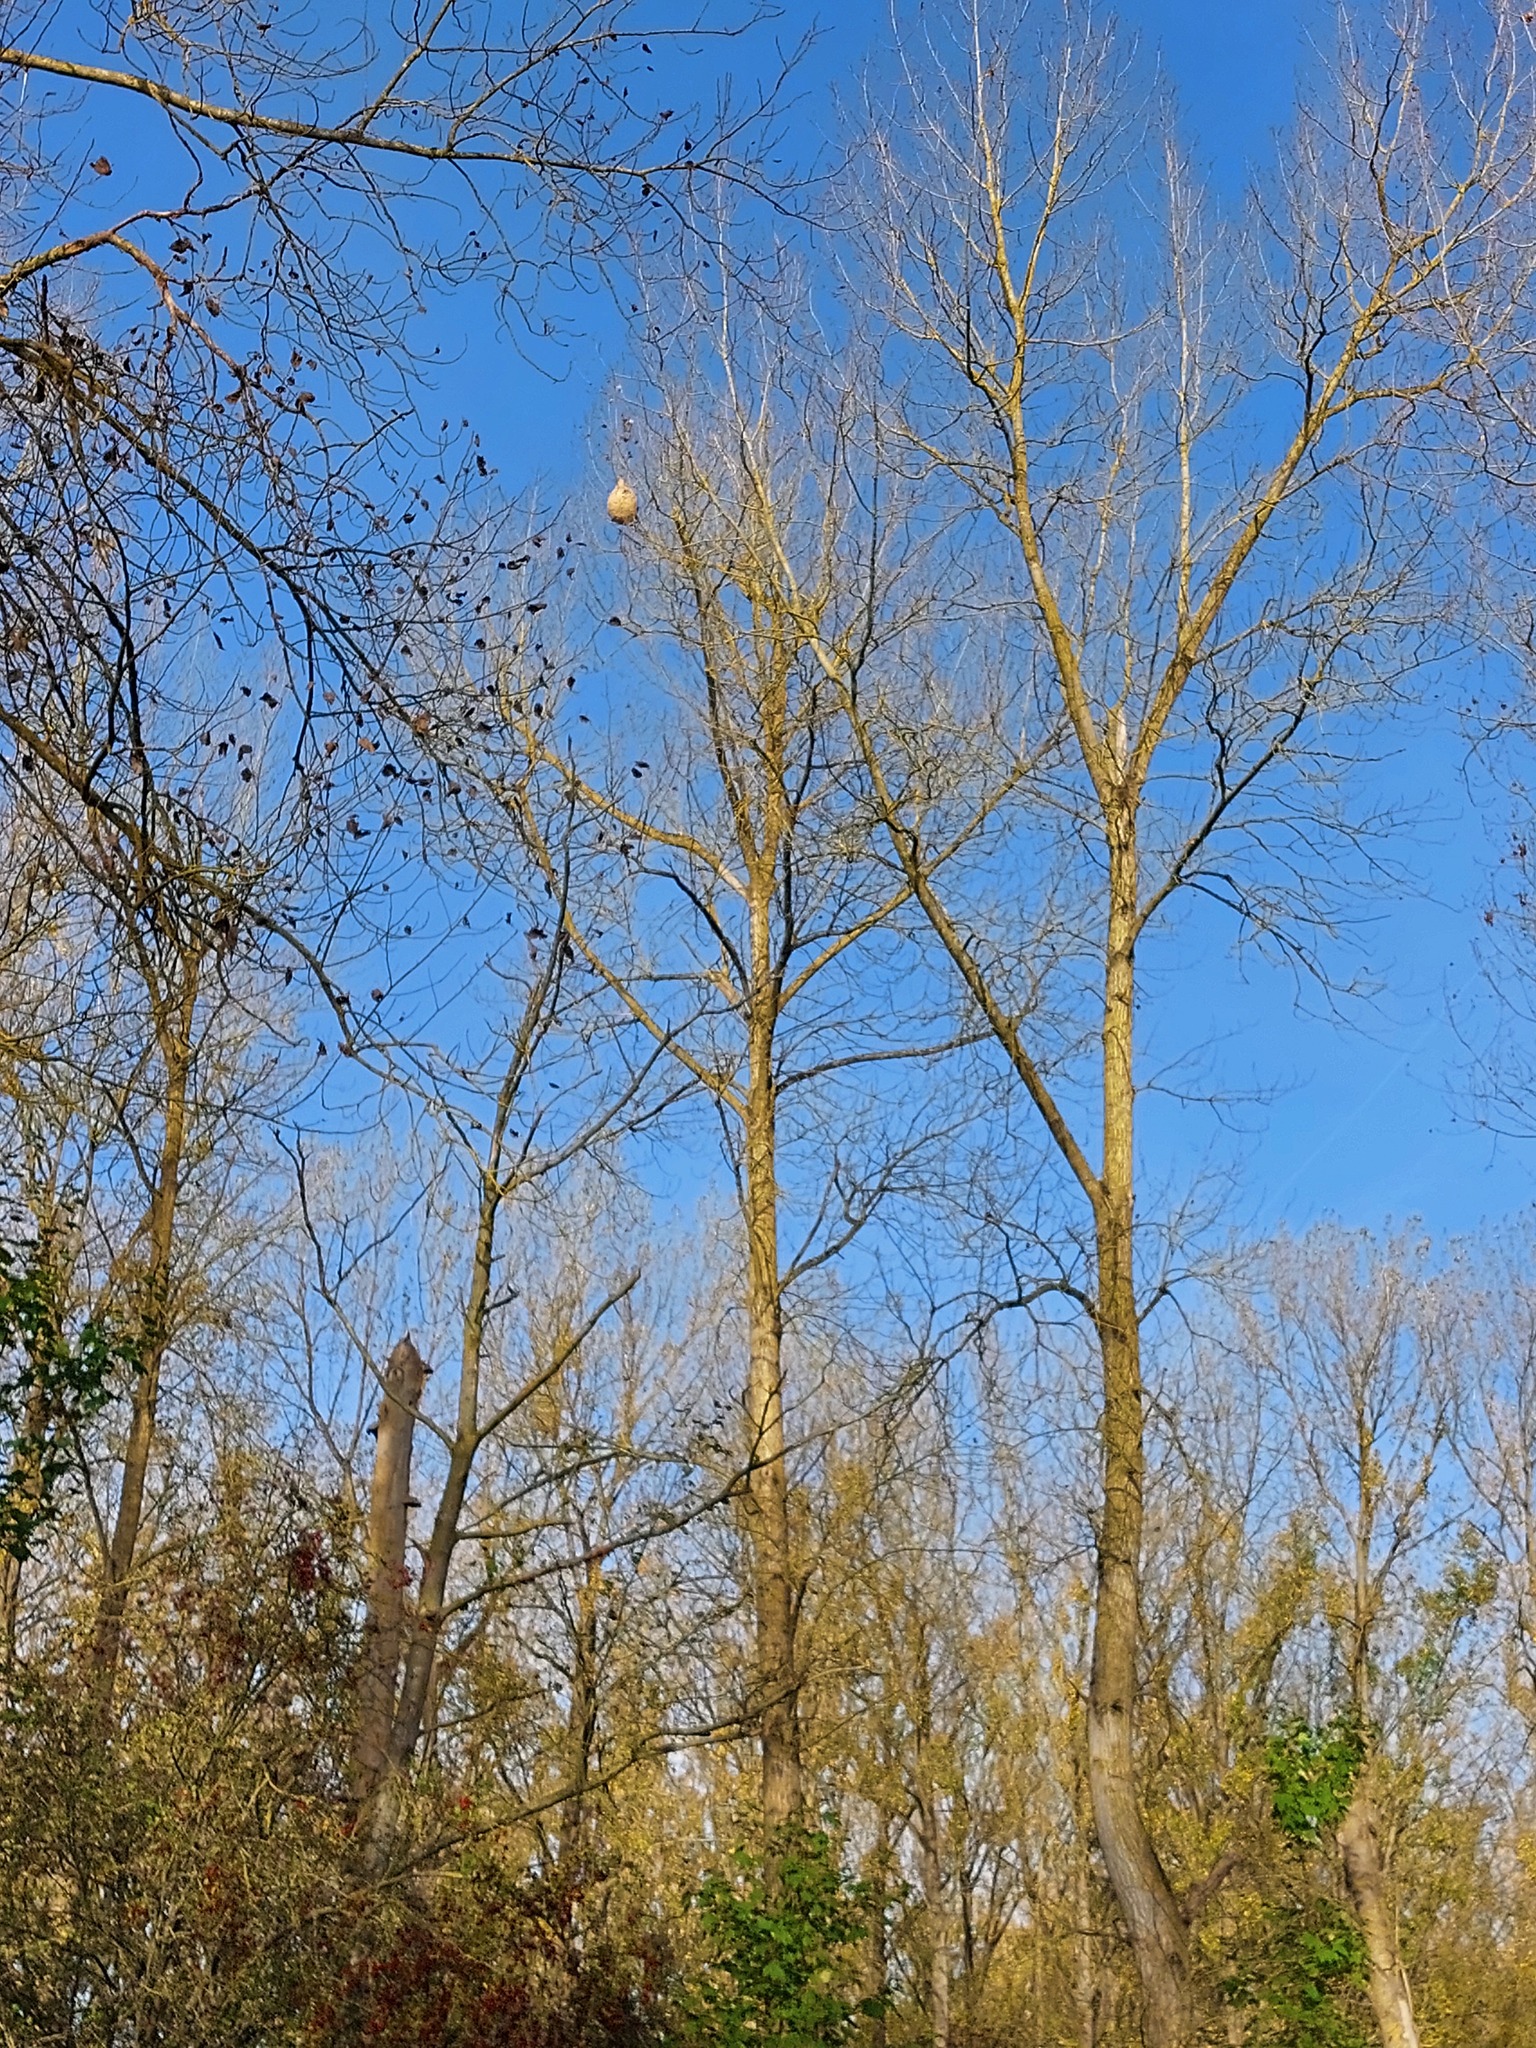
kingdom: Animalia
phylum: Arthropoda
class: Insecta
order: Hymenoptera
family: Vespidae
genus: Vespa
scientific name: Vespa velutina
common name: Asian hornet
